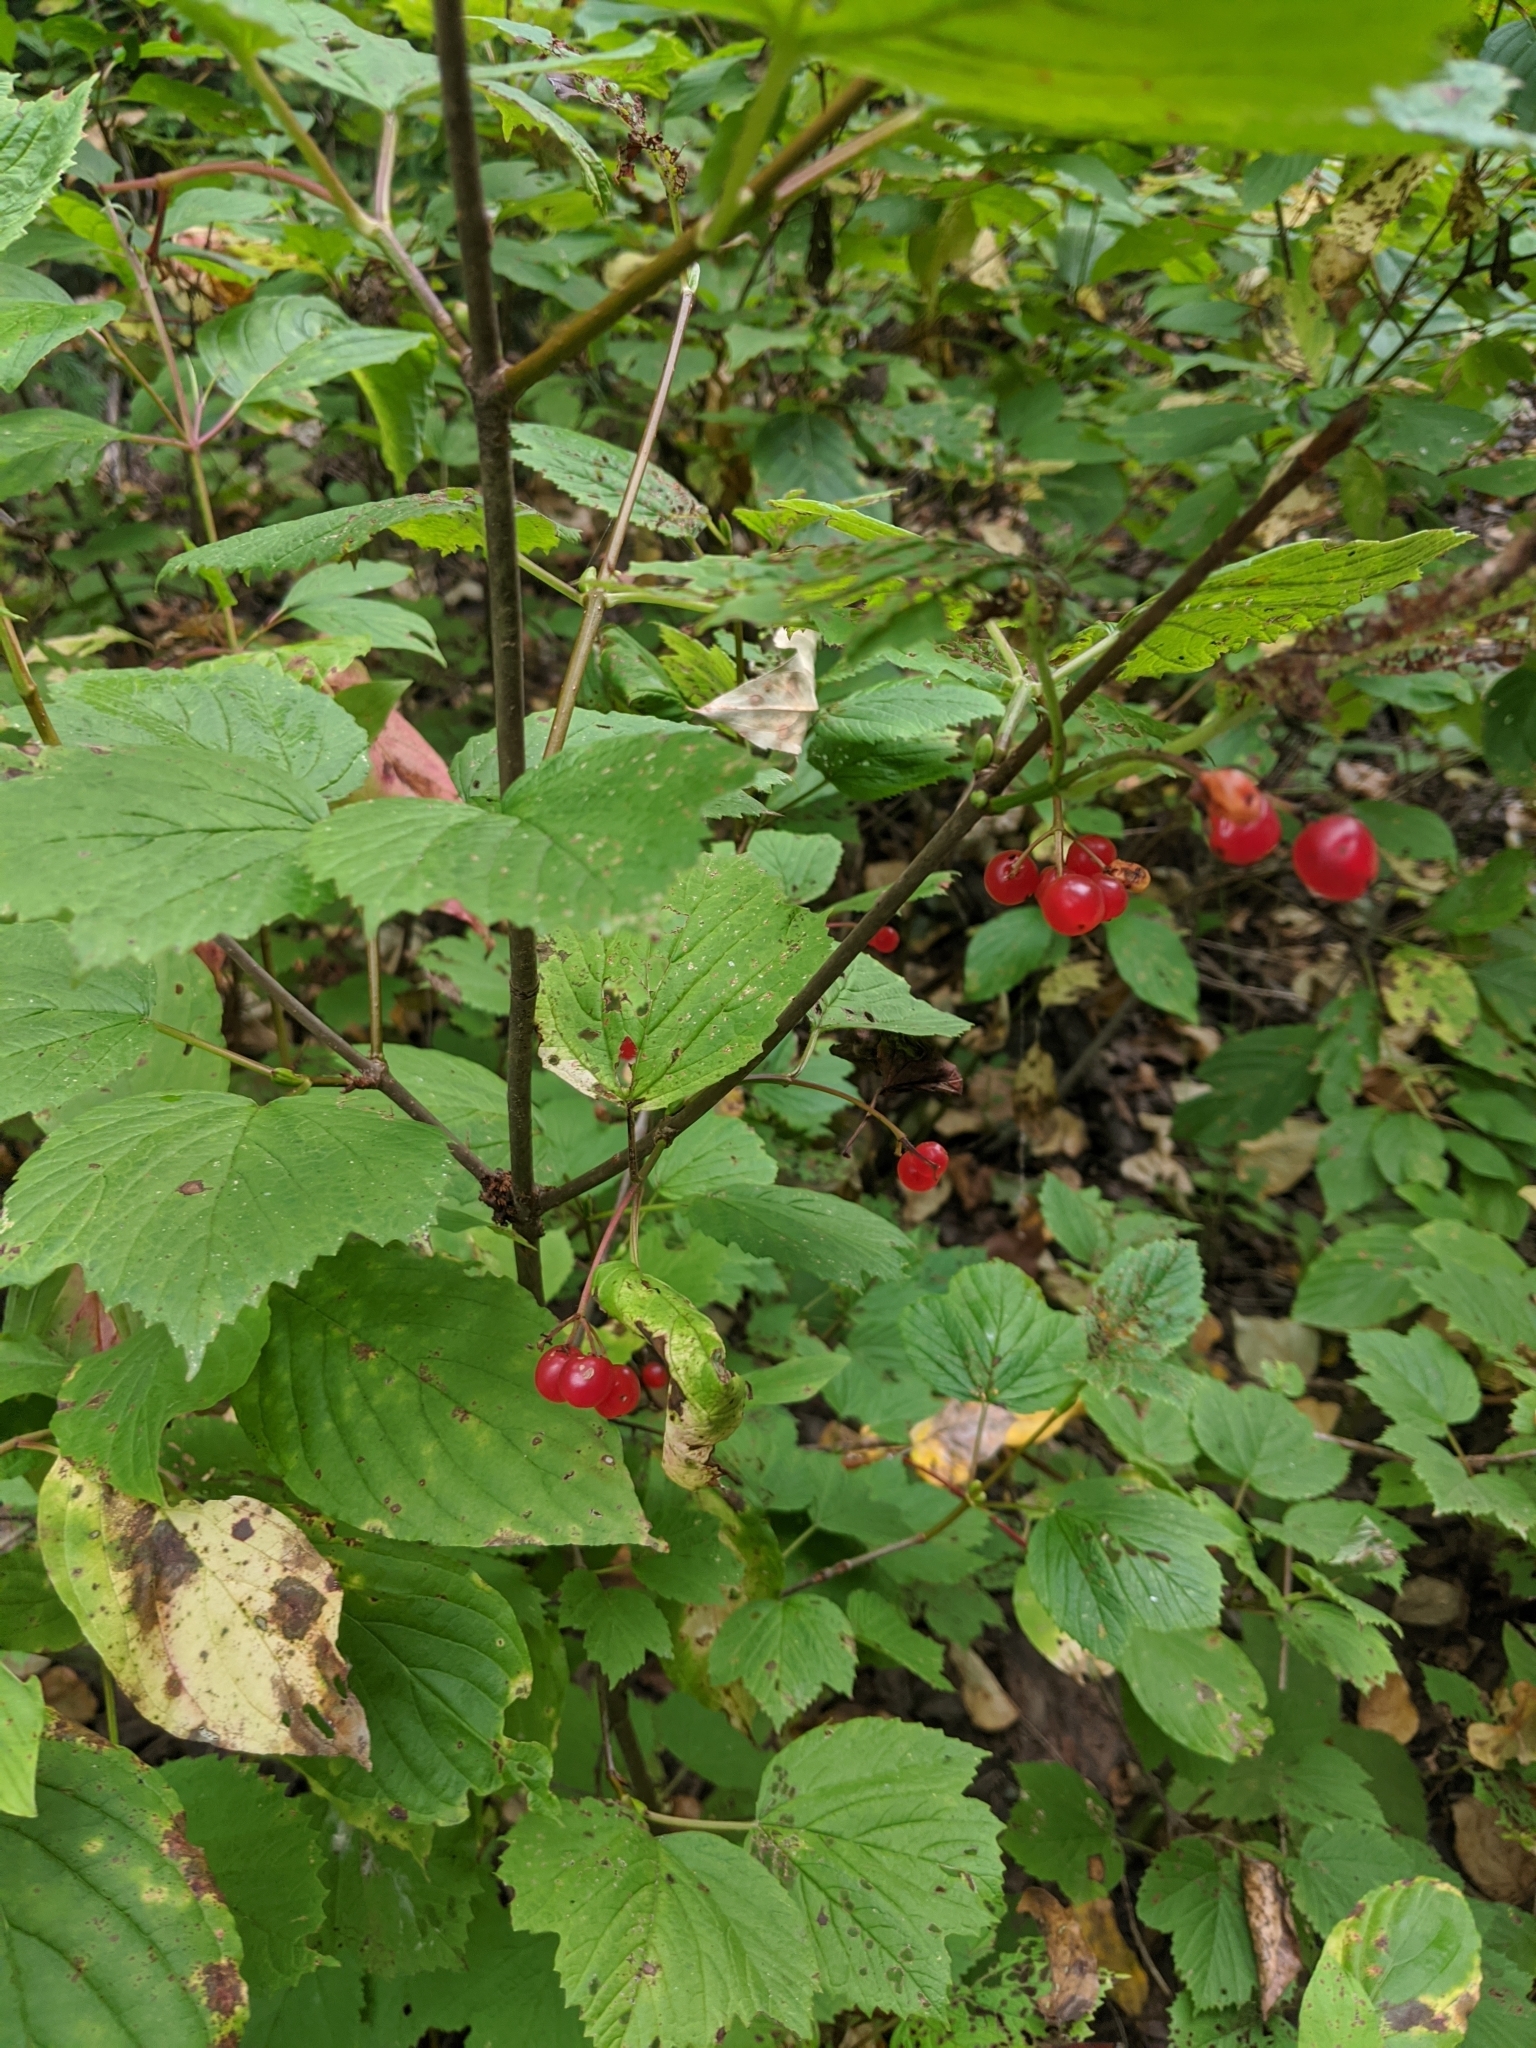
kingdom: Plantae
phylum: Tracheophyta
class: Magnoliopsida
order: Dipsacales
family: Viburnaceae
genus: Viburnum
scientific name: Viburnum edule
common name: Mooseberry
